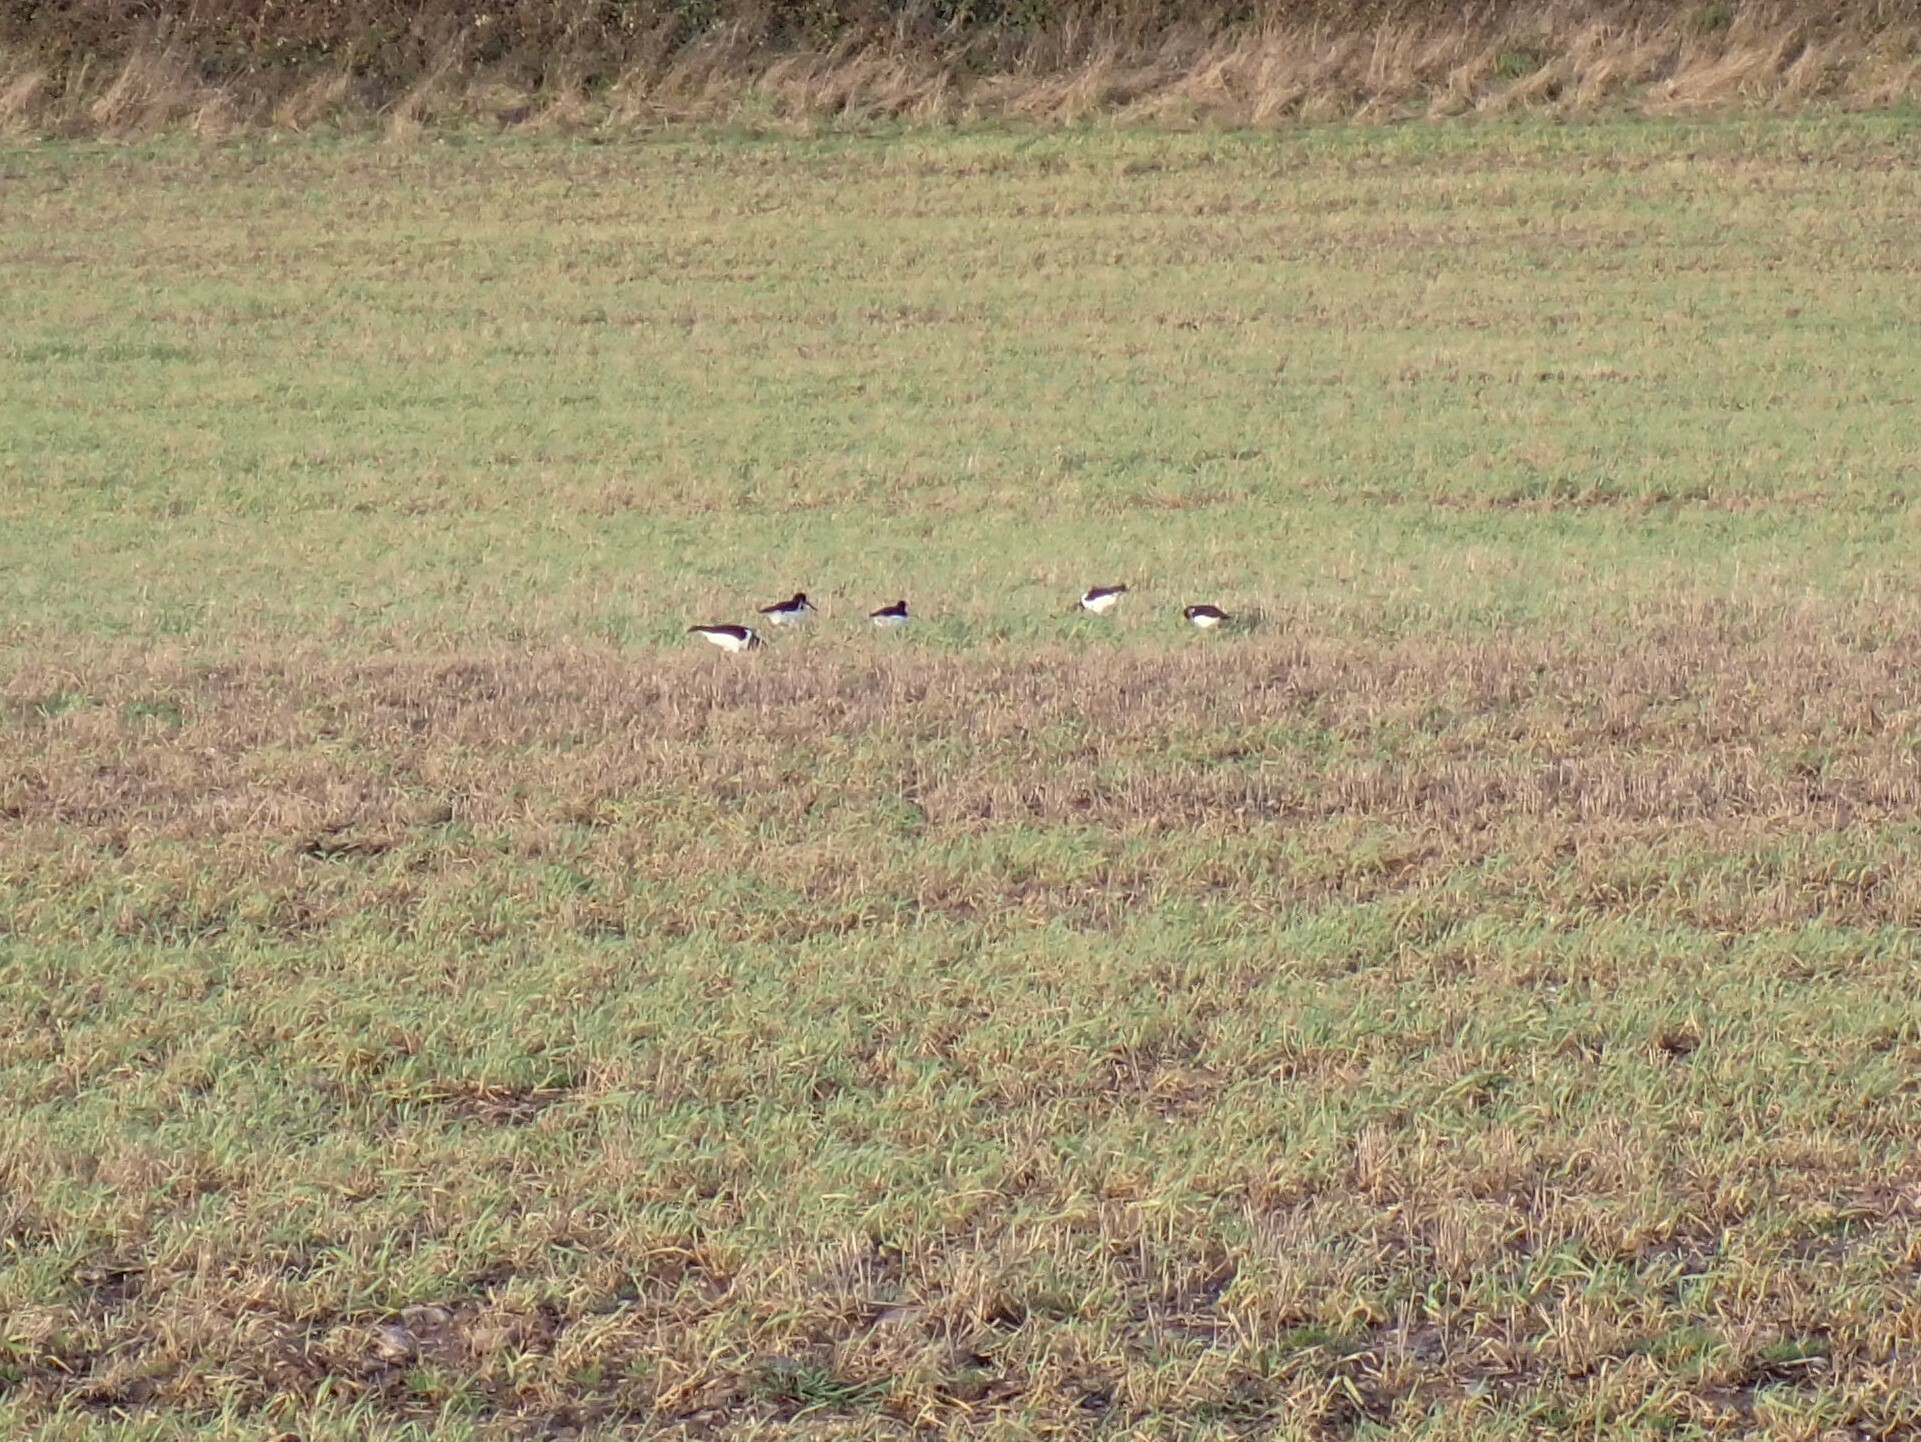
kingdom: Animalia
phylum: Chordata
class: Aves
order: Charadriiformes
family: Haematopodidae
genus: Haematopus
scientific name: Haematopus ostralegus
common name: Eurasian oystercatcher
